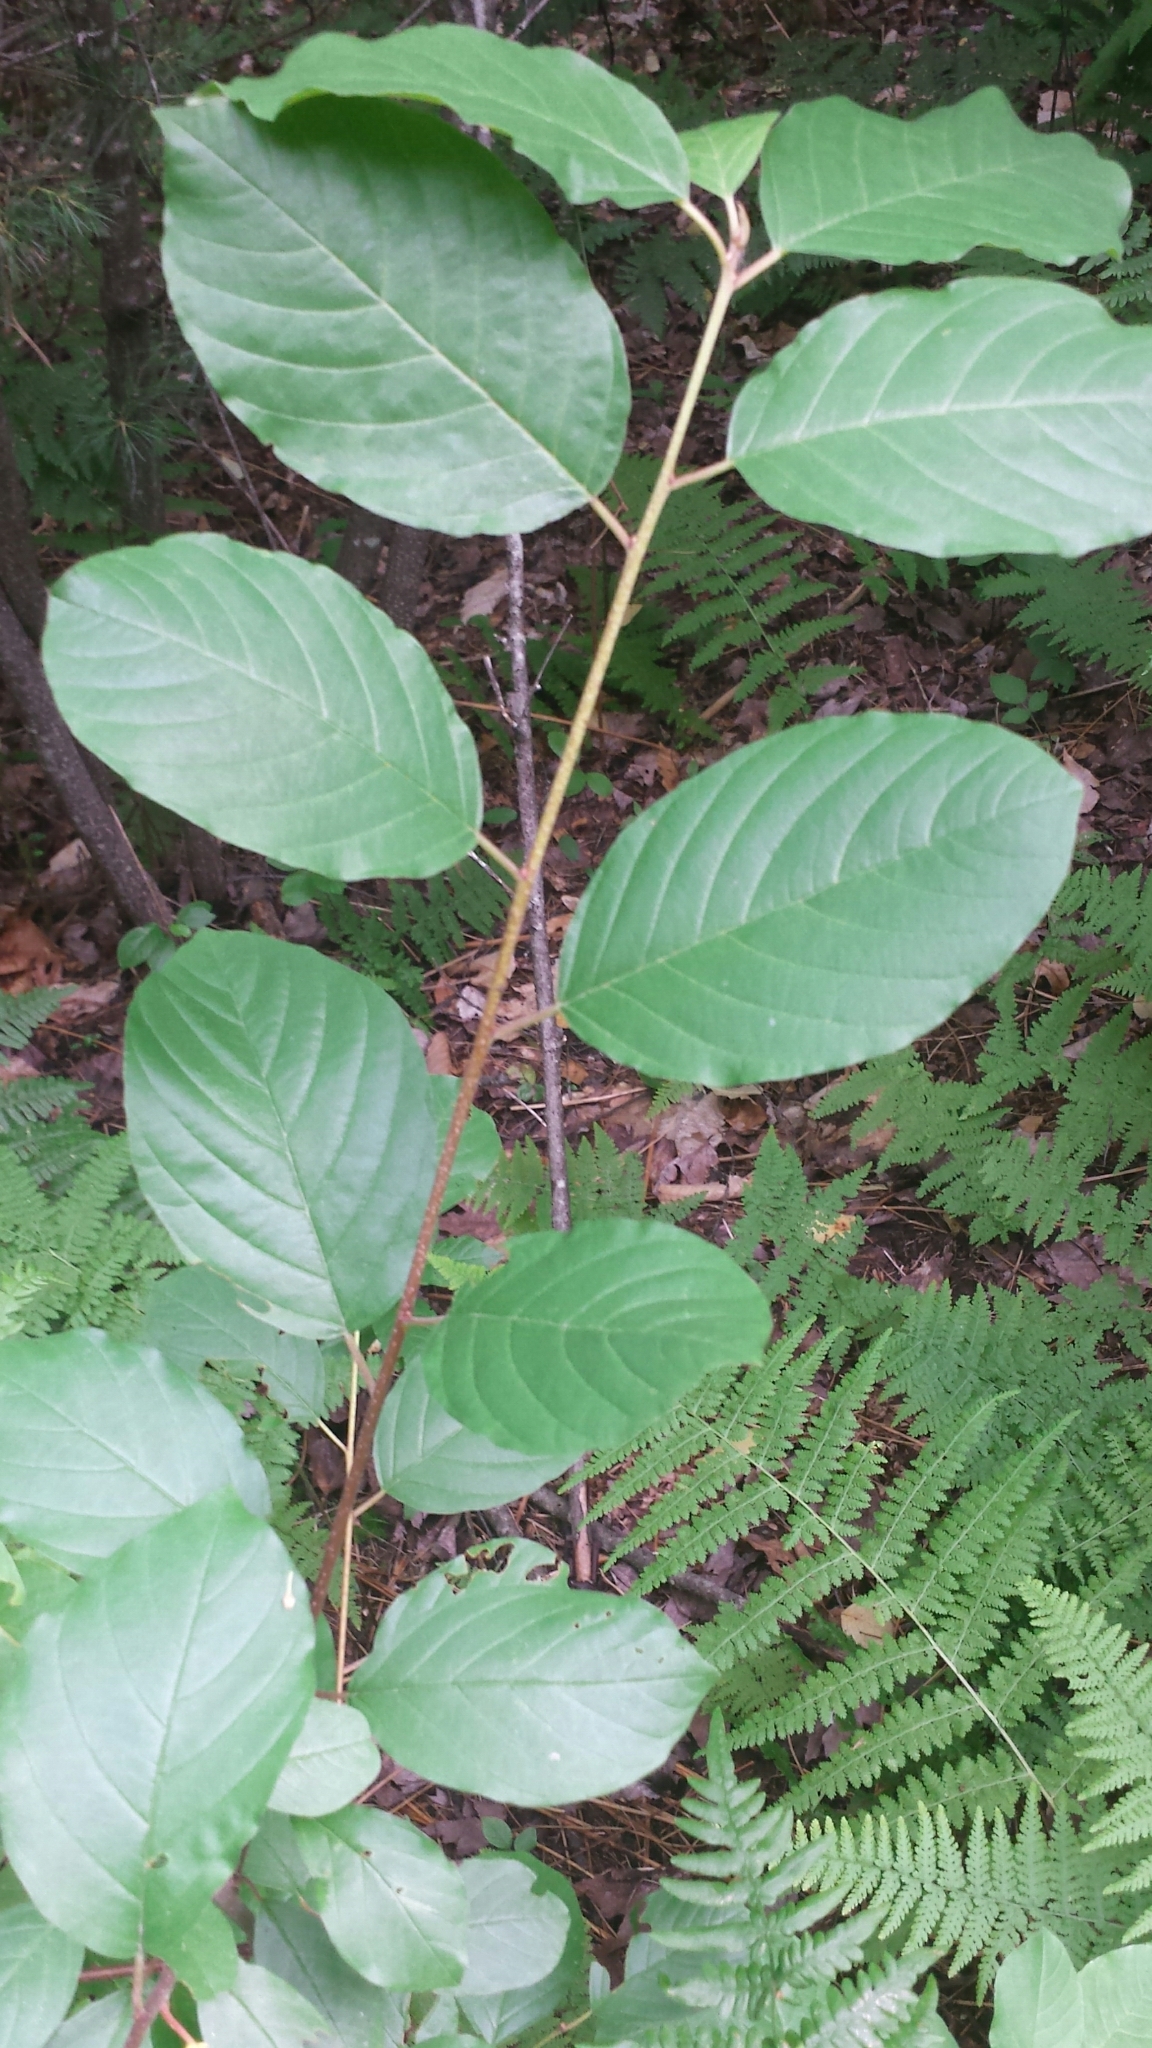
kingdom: Plantae
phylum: Tracheophyta
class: Magnoliopsida
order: Rosales
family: Rhamnaceae
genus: Frangula
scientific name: Frangula alnus
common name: Alder buckthorn
